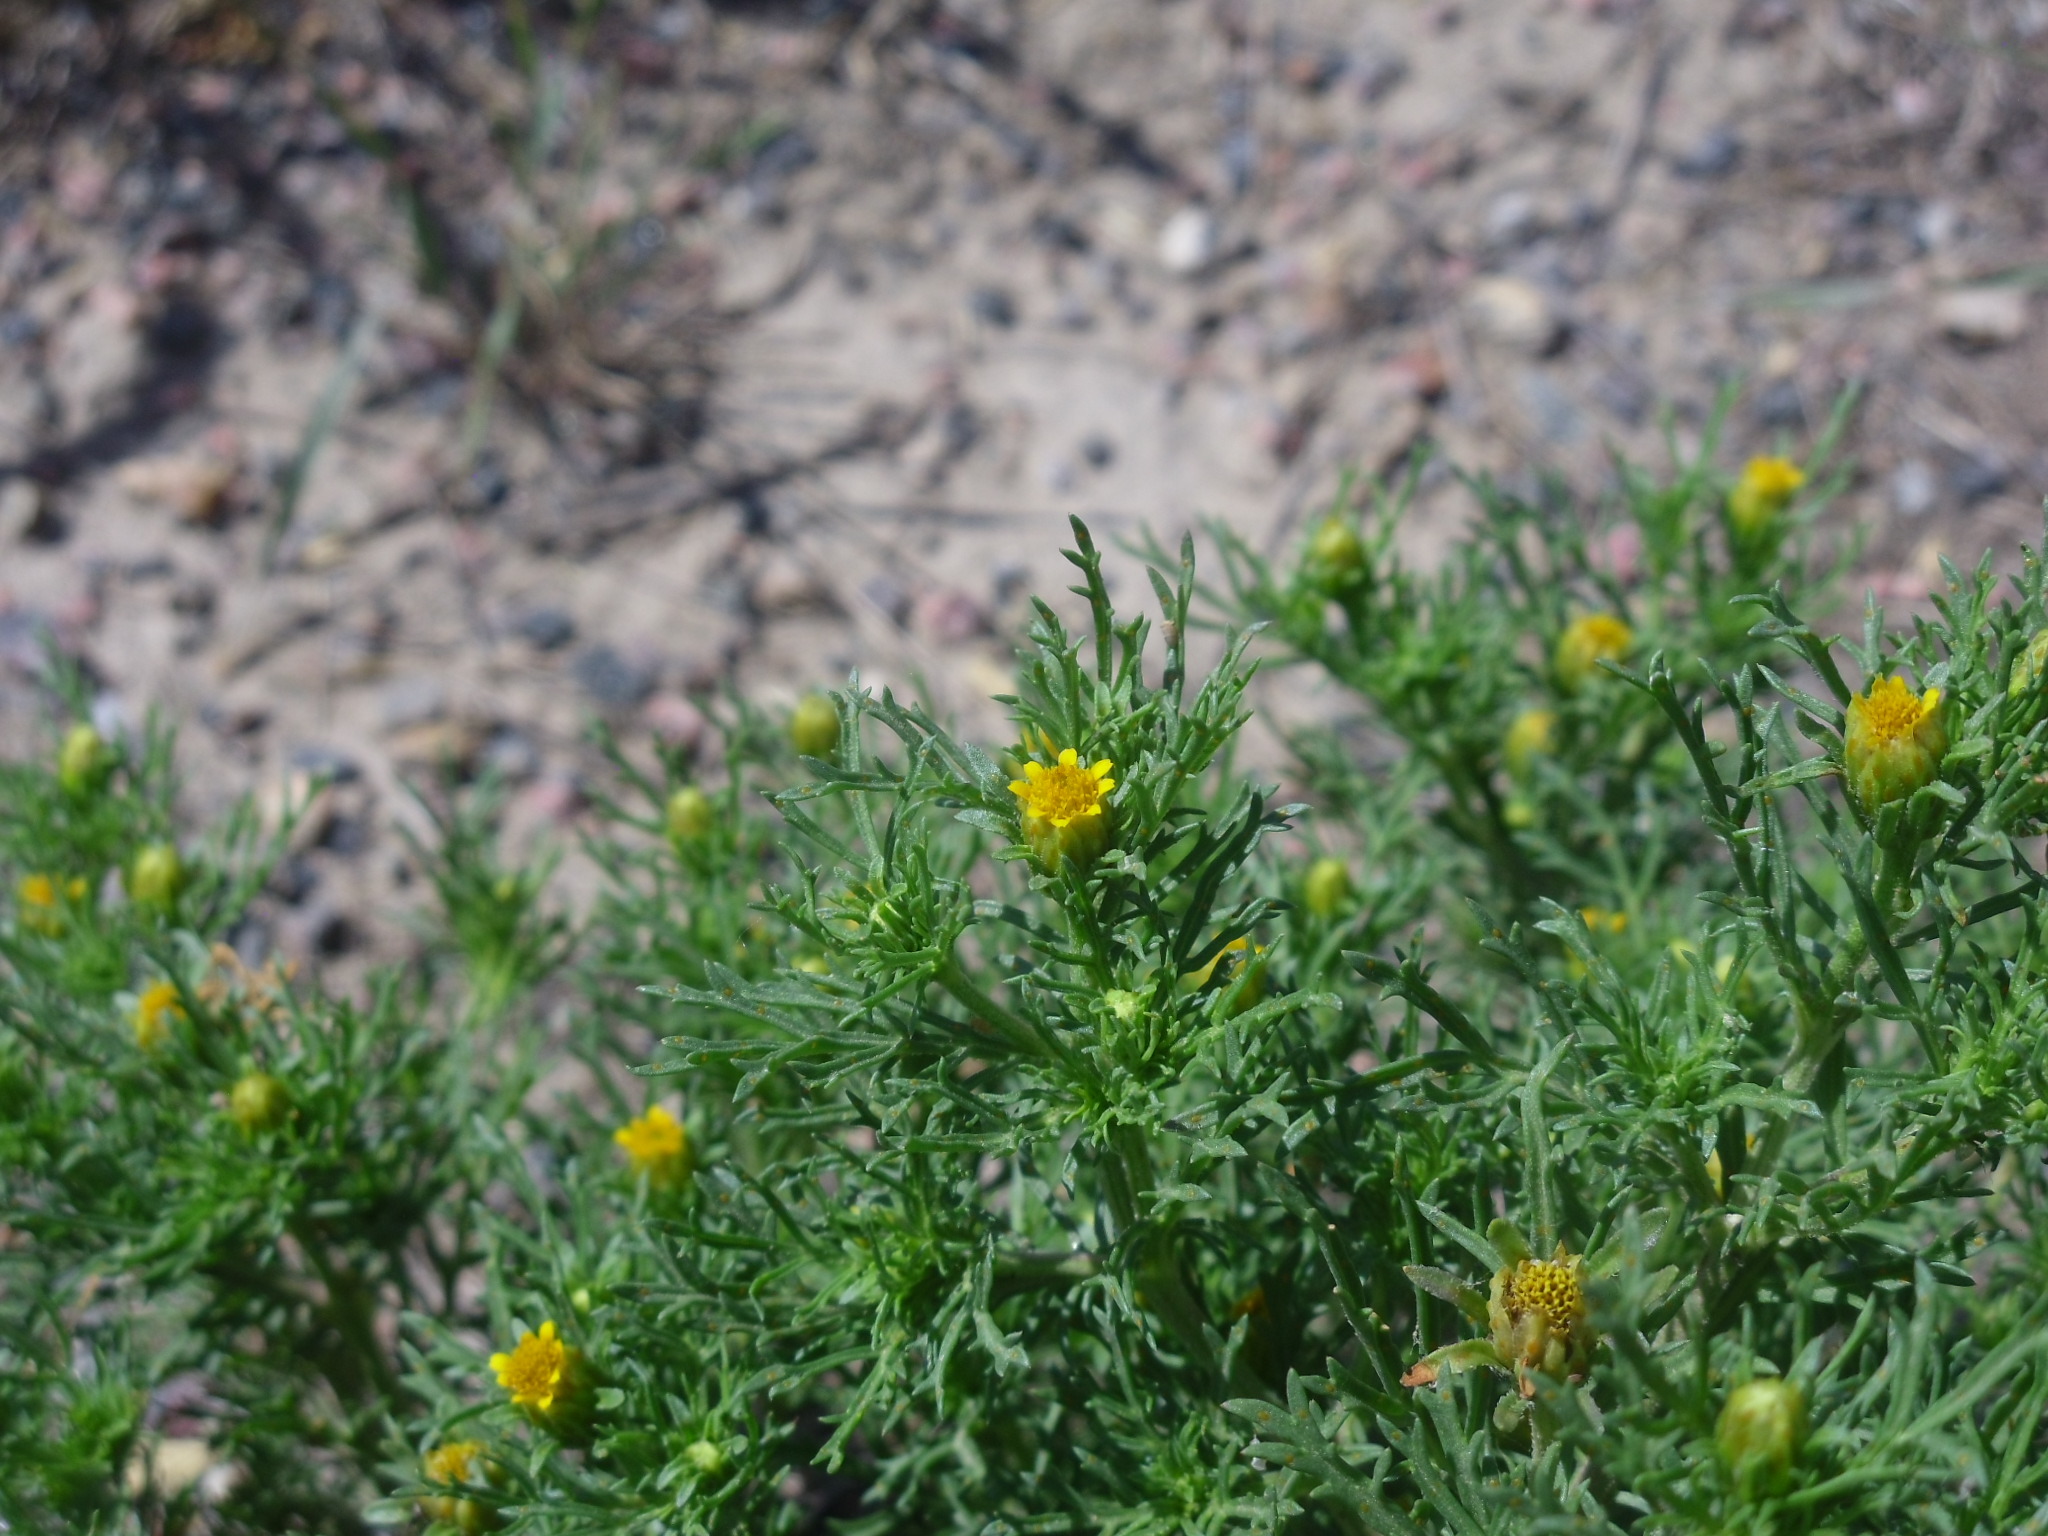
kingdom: Plantae
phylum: Tracheophyta
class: Magnoliopsida
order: Asterales
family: Asteraceae
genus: Dyssodia
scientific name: Dyssodia papposa
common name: Dogweed
